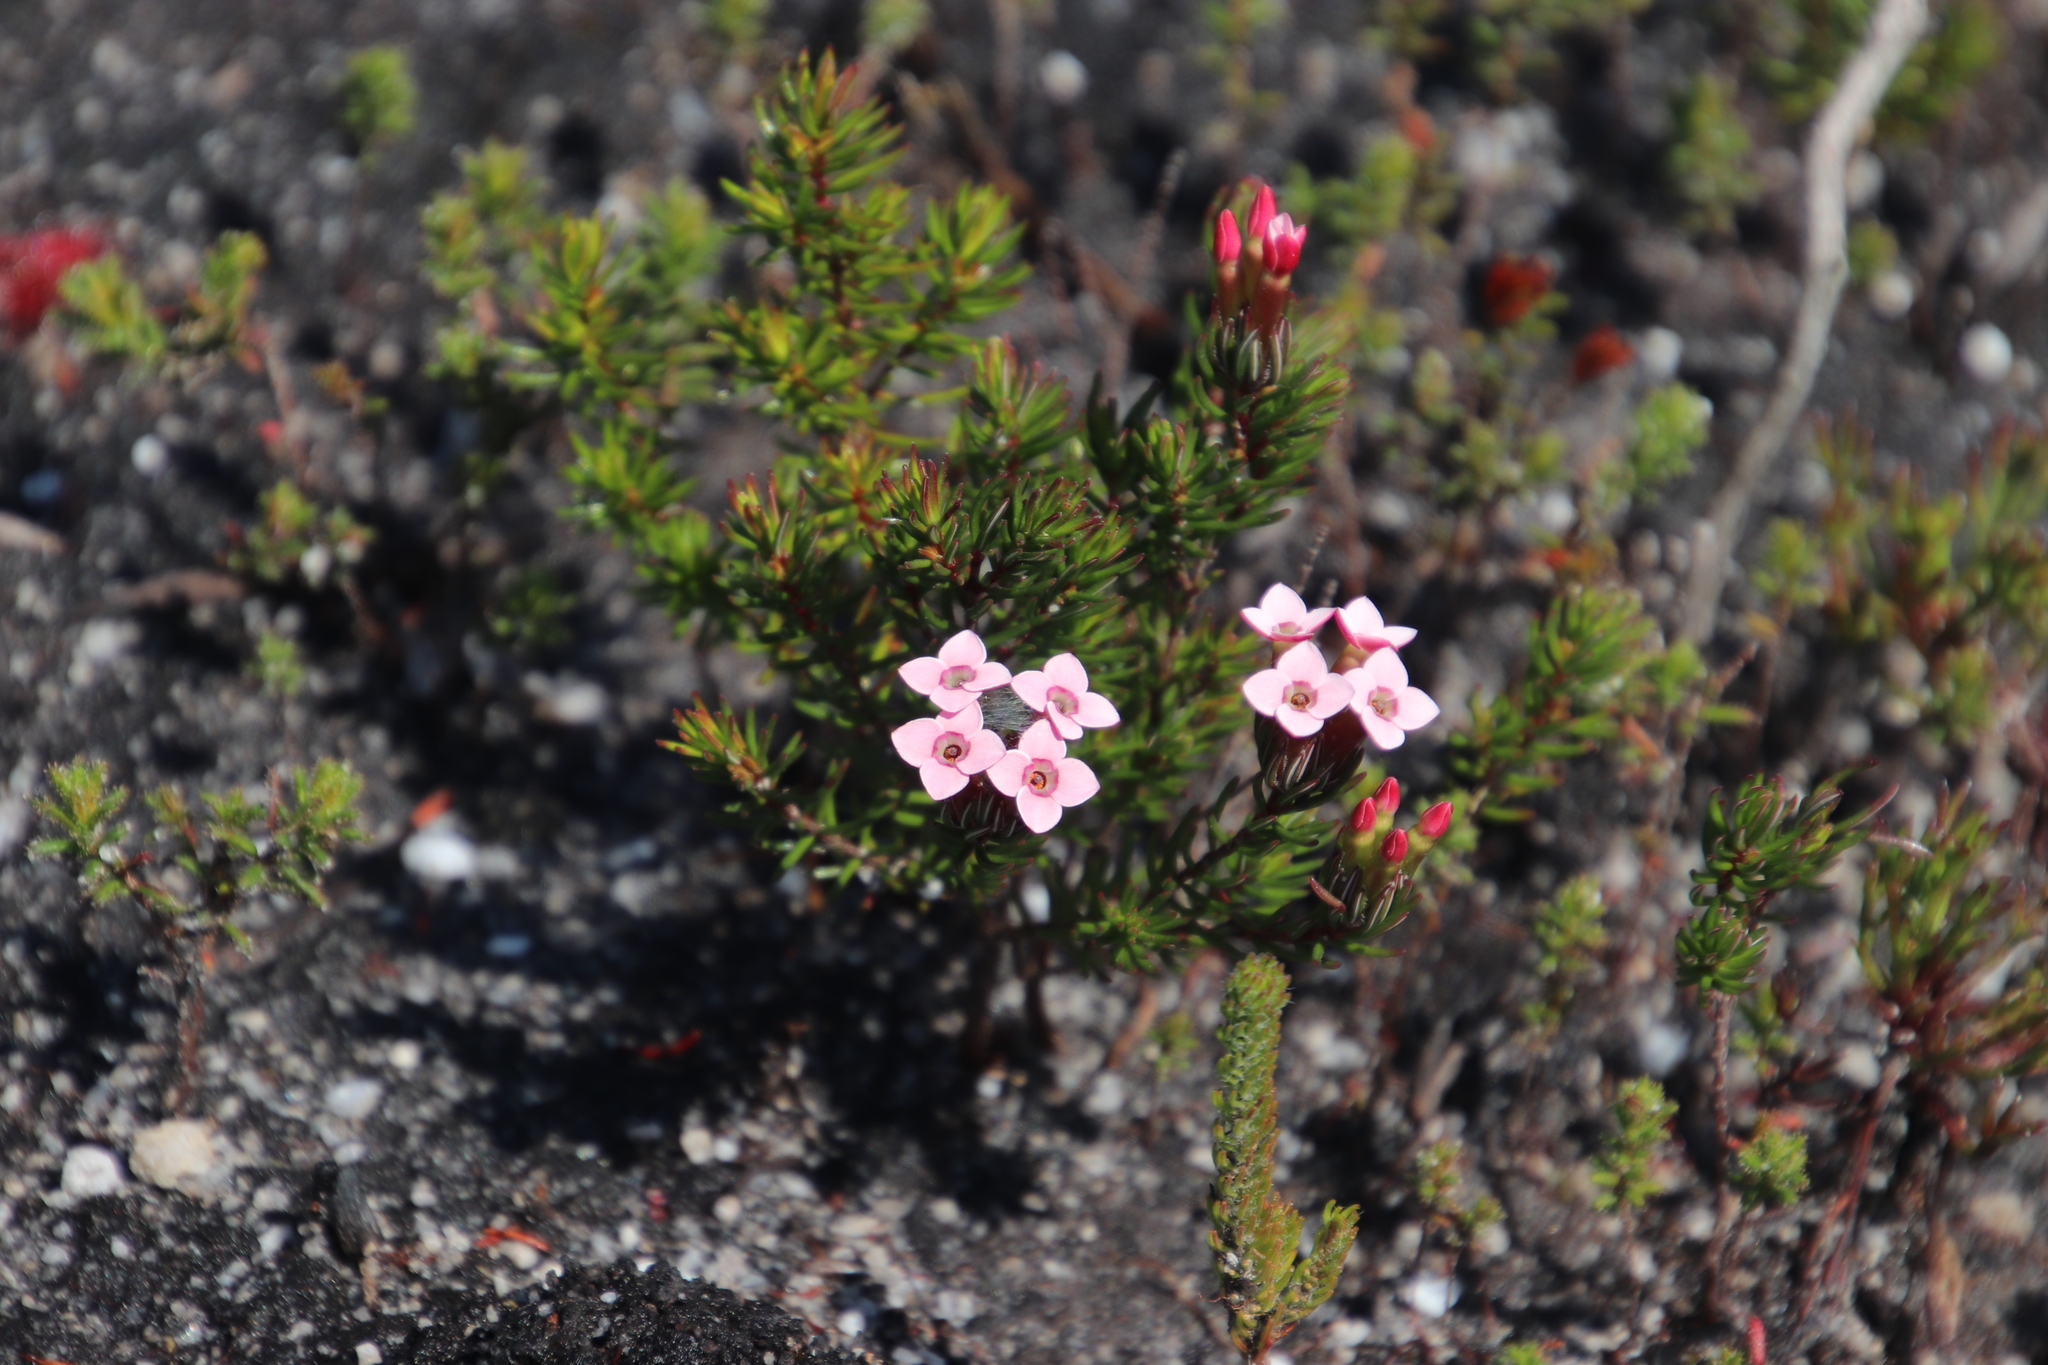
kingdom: Plantae
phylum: Tracheophyta
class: Magnoliopsida
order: Ericales
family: Ericaceae
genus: Erica
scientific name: Erica fastigiata
